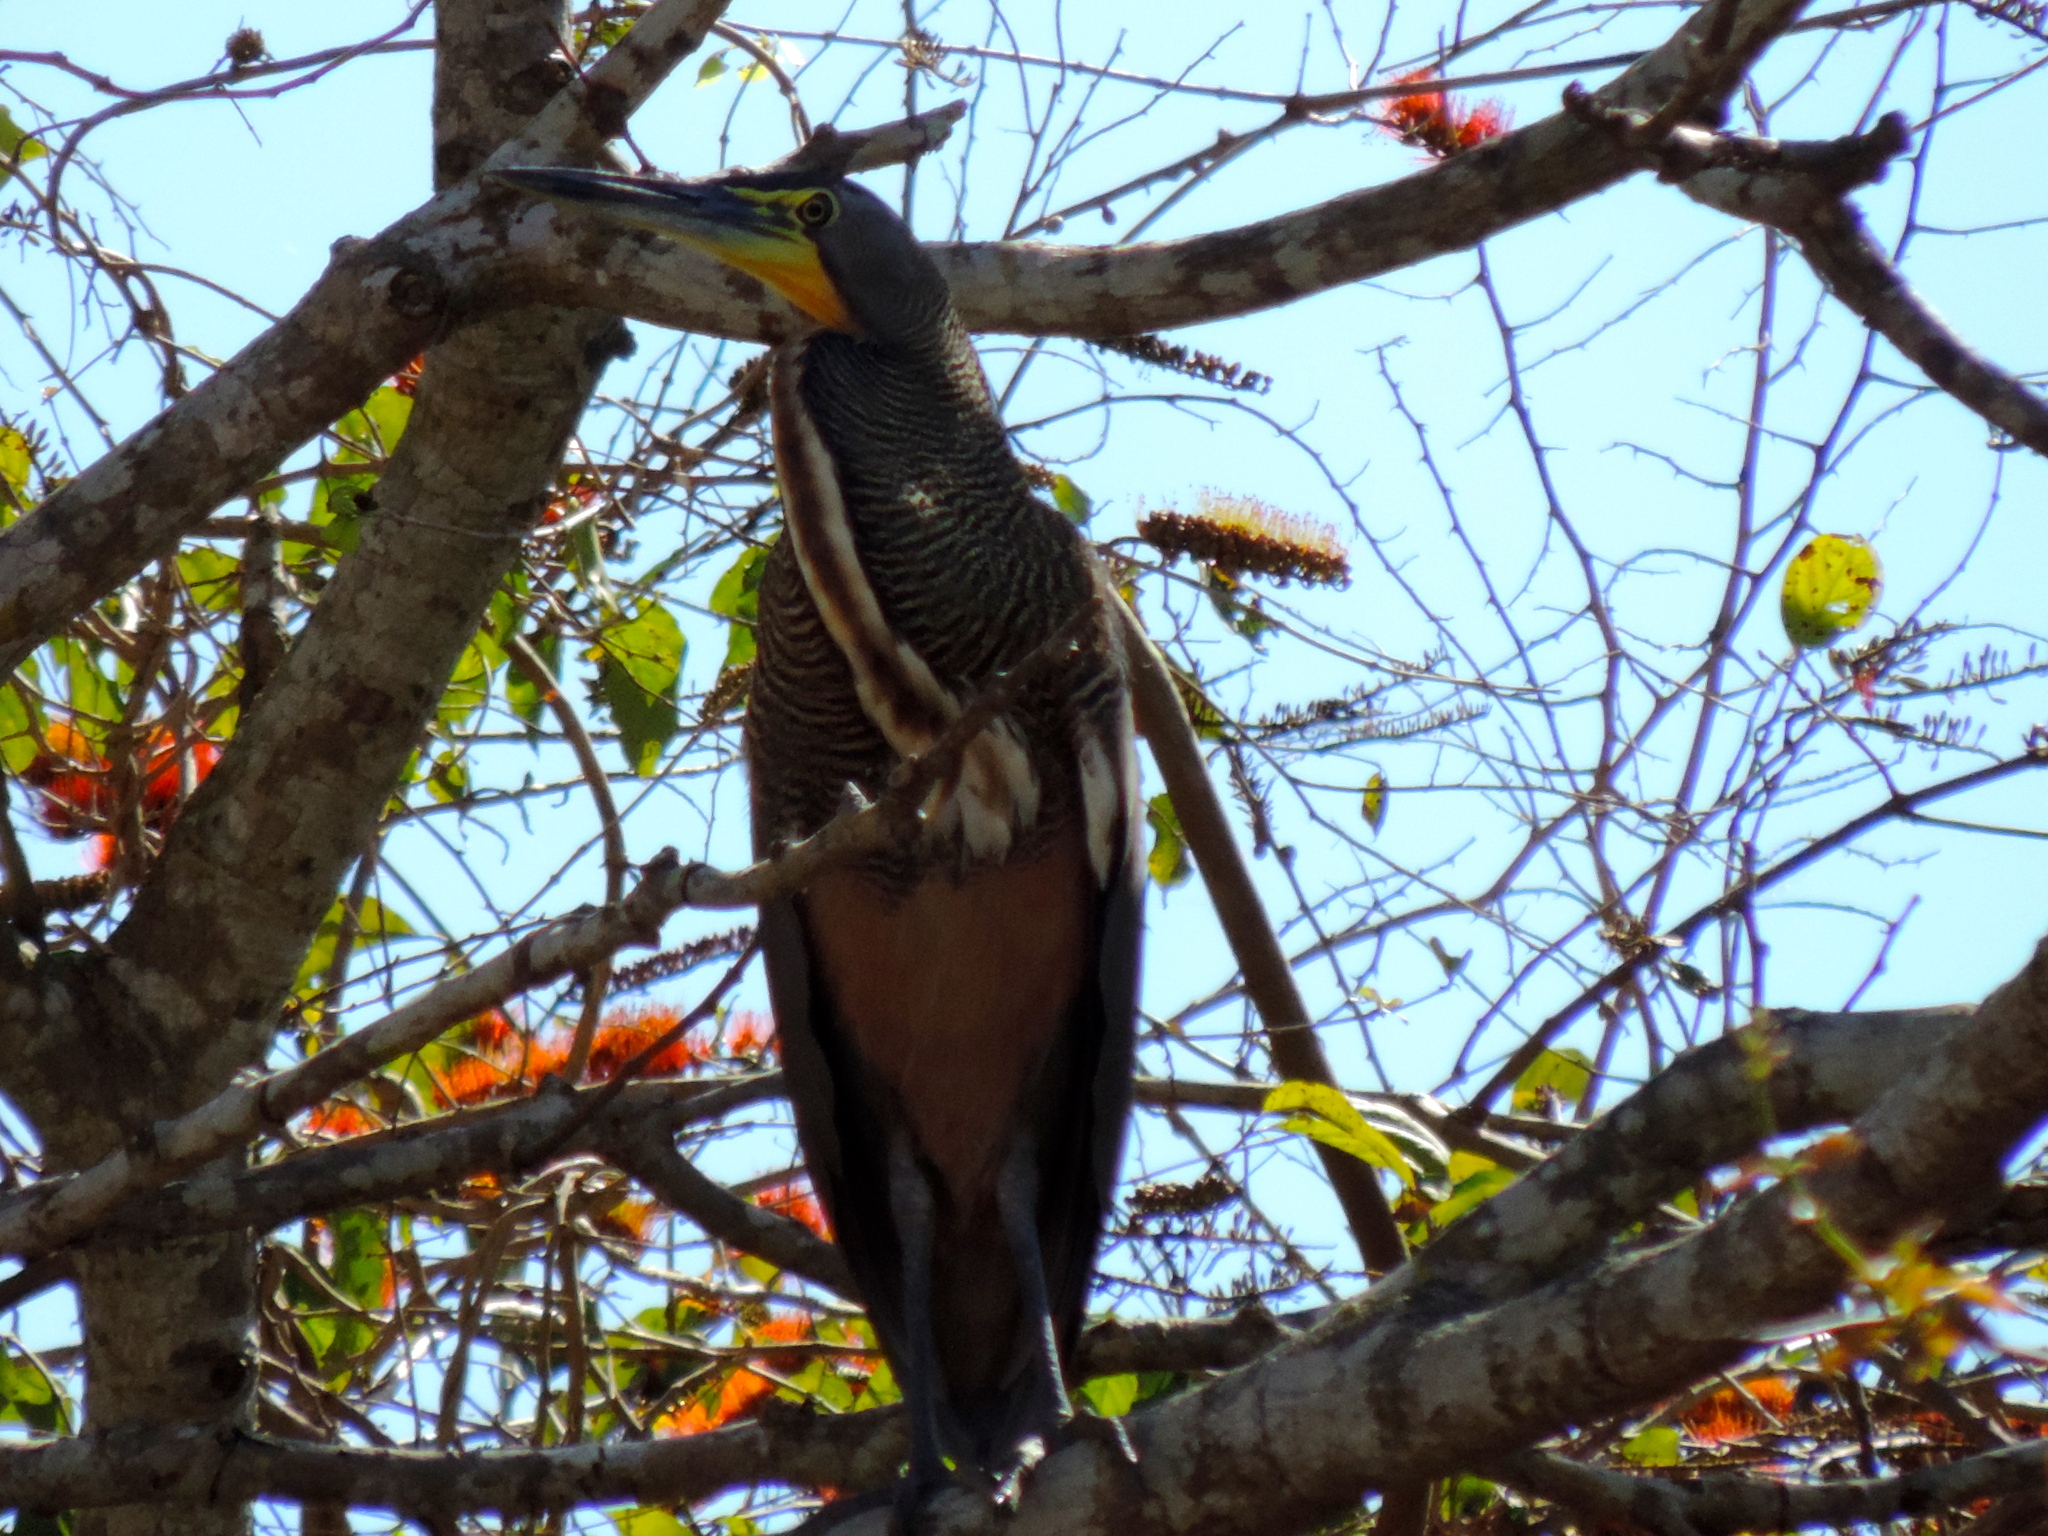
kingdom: Animalia
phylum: Chordata
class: Aves
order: Pelecaniformes
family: Ardeidae
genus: Tigrisoma
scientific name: Tigrisoma mexicanum
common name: Bare-throated tiger-heron
